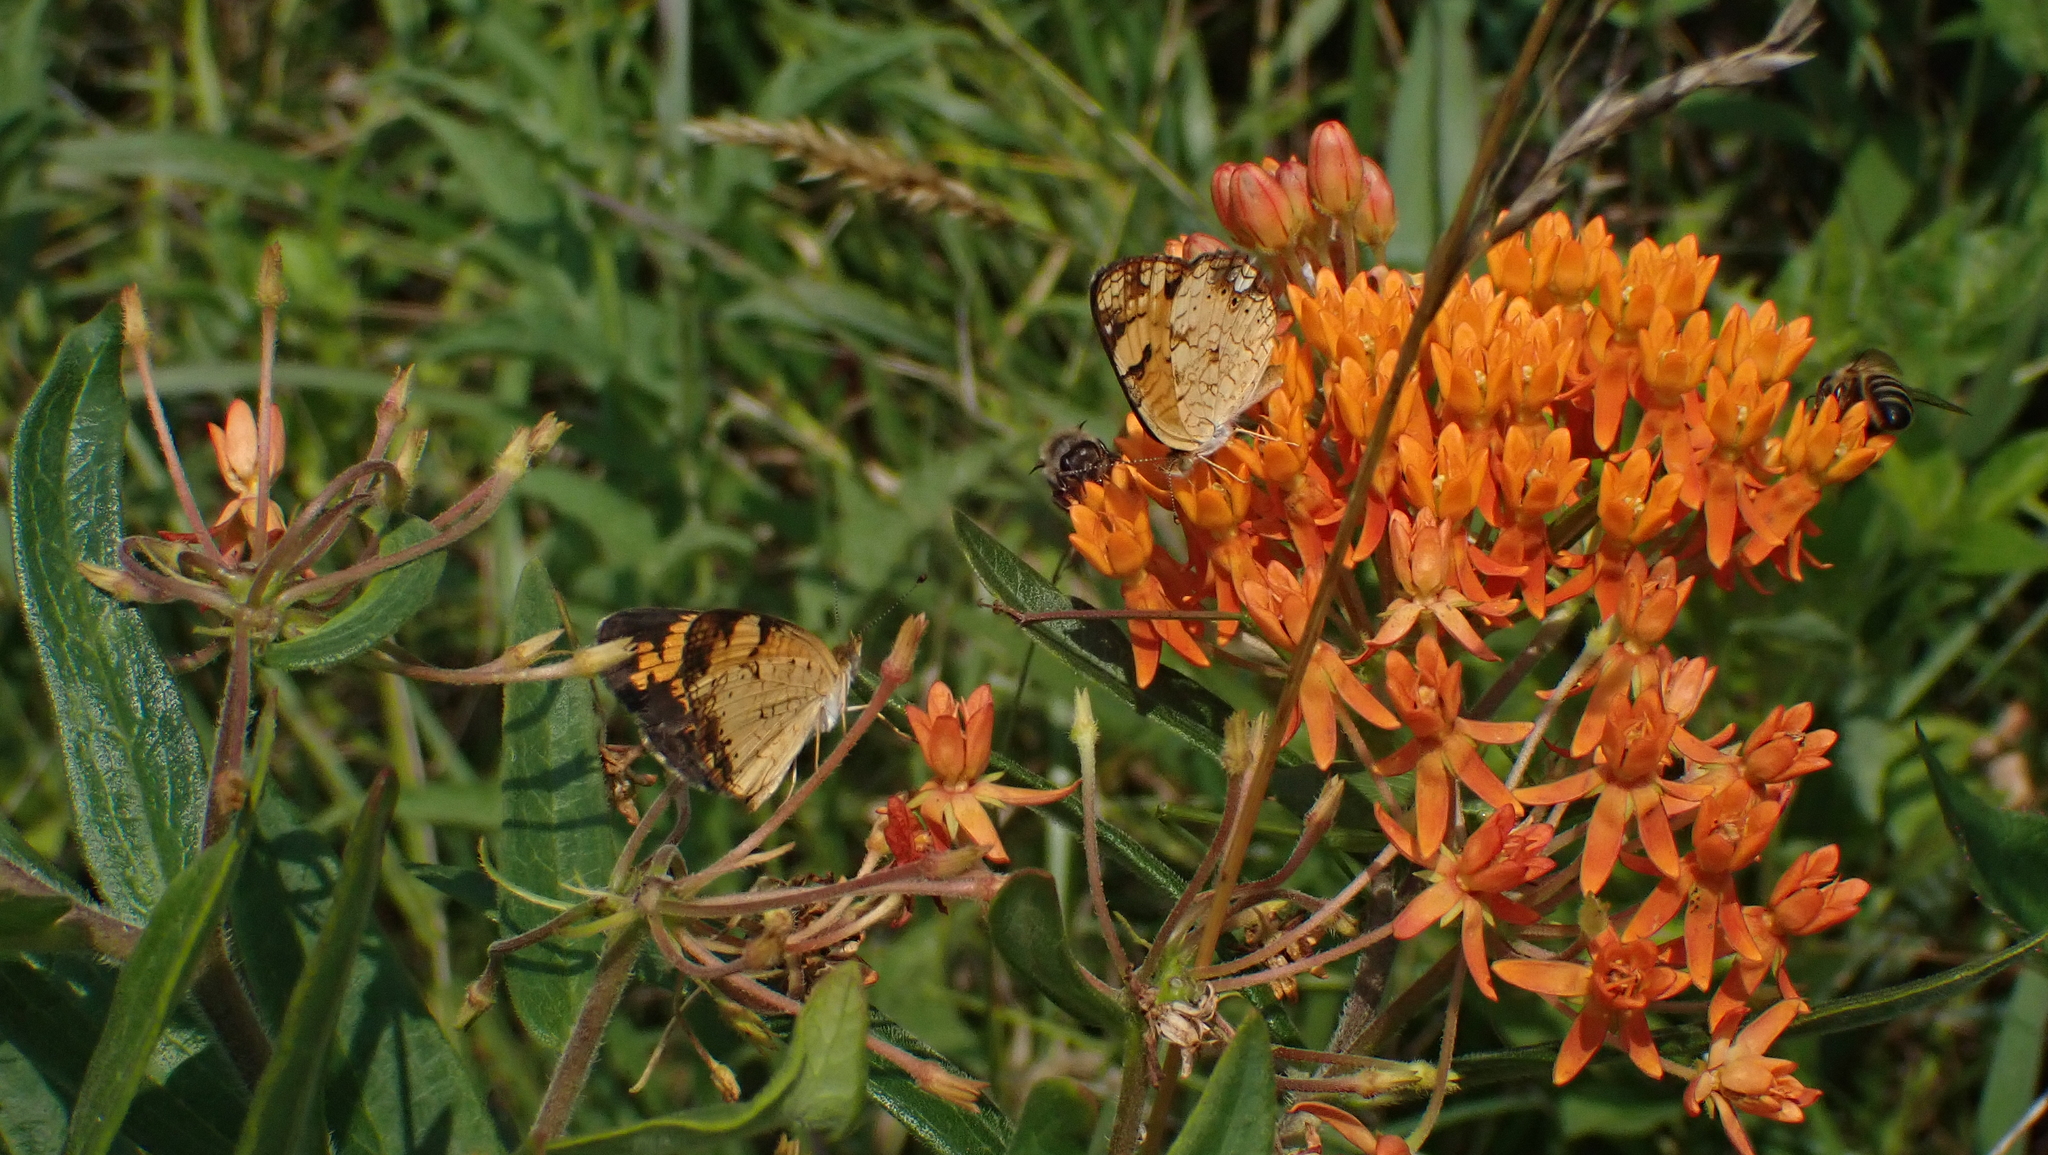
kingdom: Animalia
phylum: Arthropoda
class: Insecta
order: Lepidoptera
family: Nymphalidae
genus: Phyciodes
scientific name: Phyciodes tharos
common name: Pearl crescent
